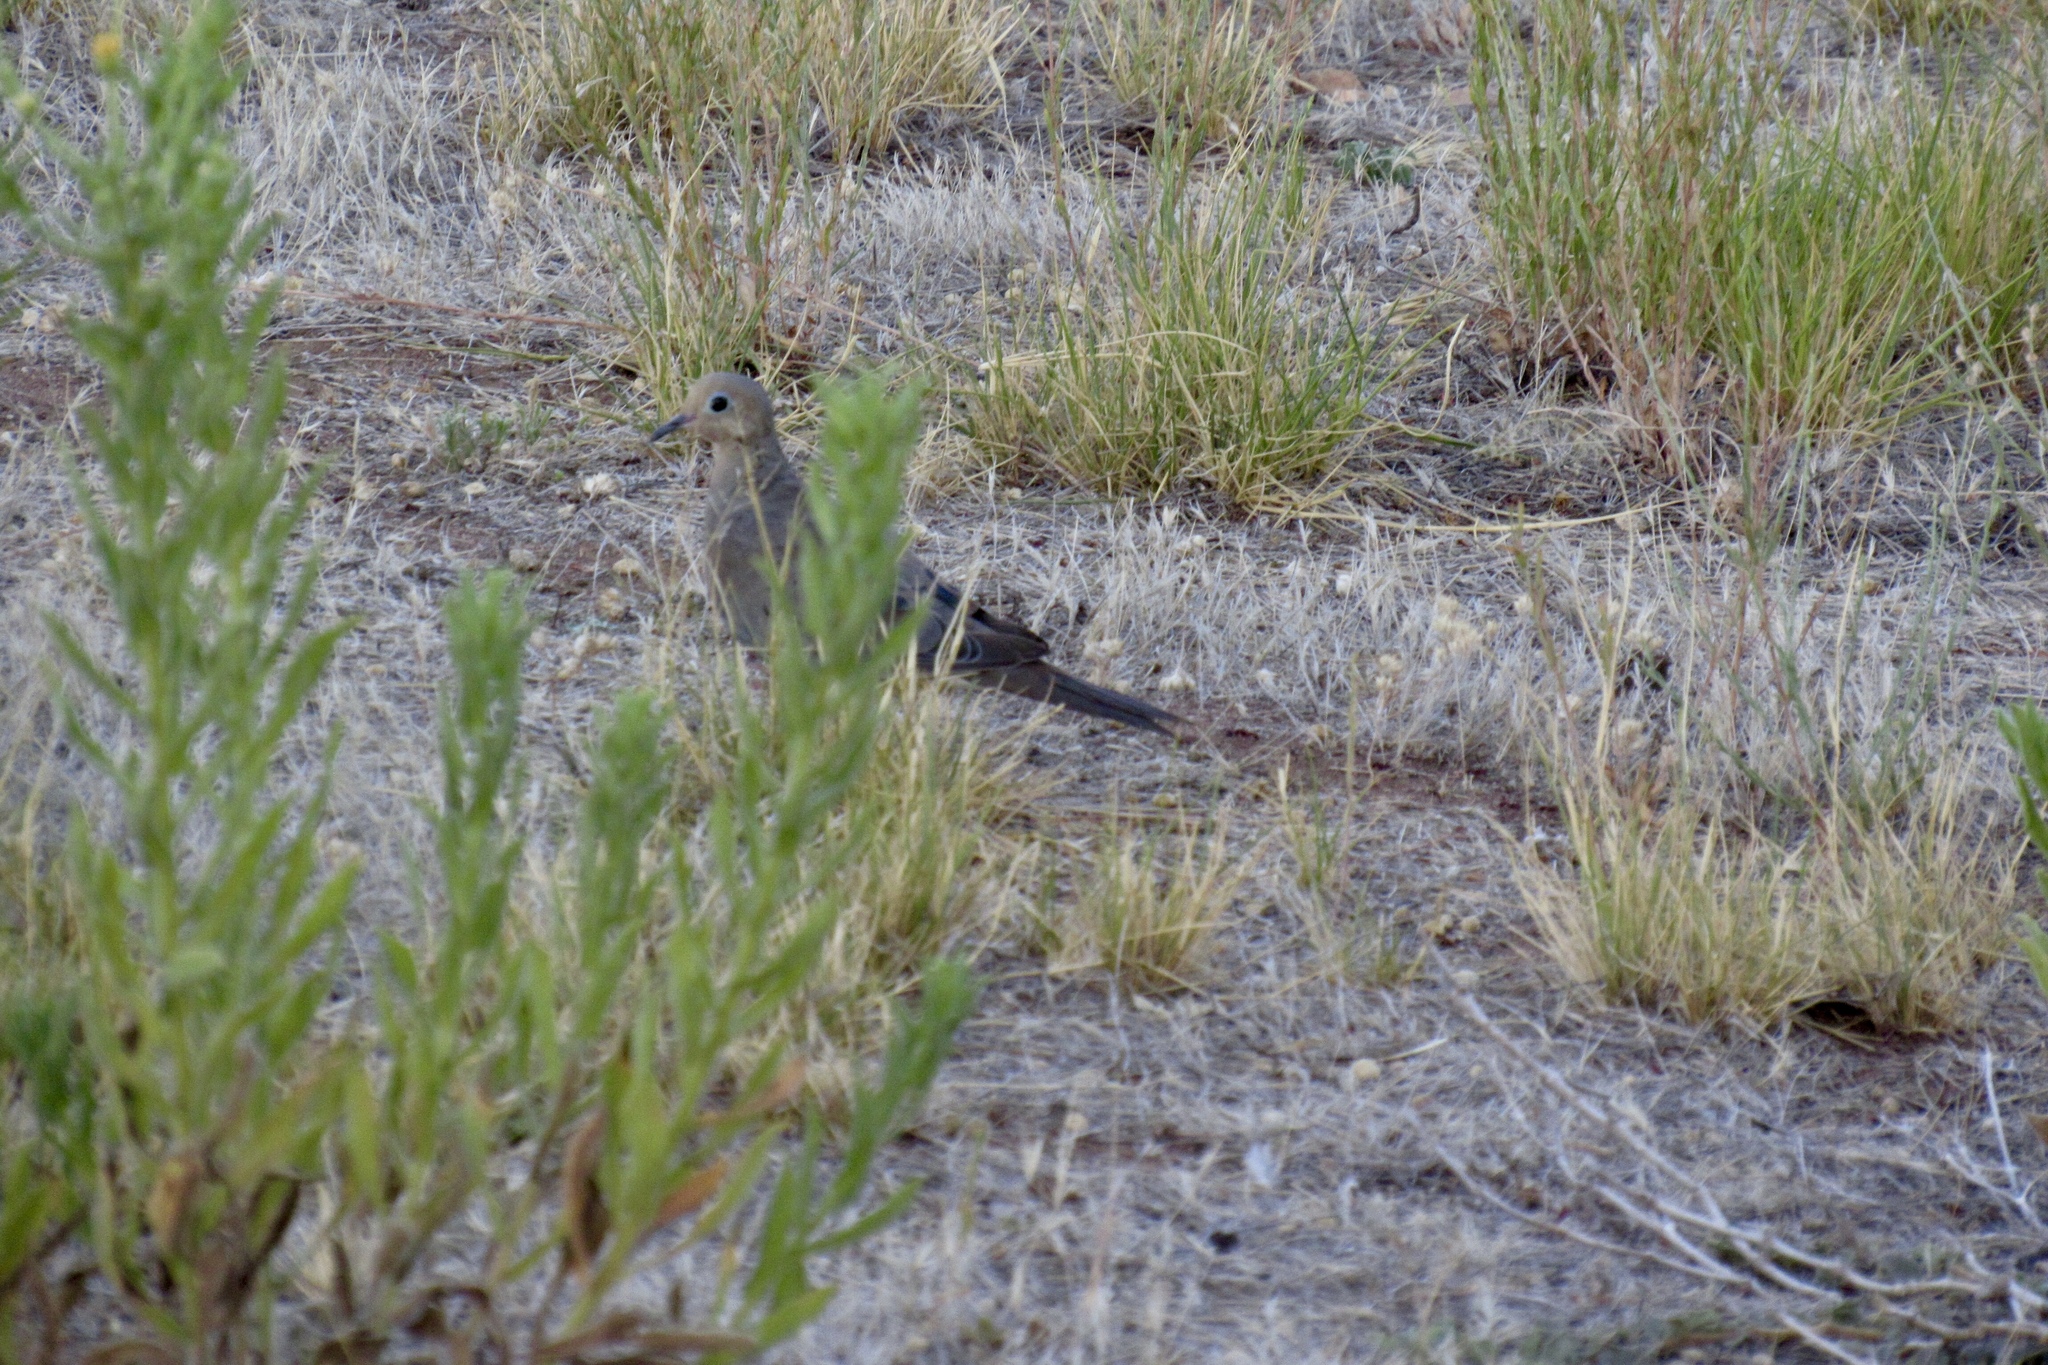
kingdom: Animalia
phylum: Chordata
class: Aves
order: Columbiformes
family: Columbidae
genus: Zenaida
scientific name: Zenaida macroura
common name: Mourning dove
